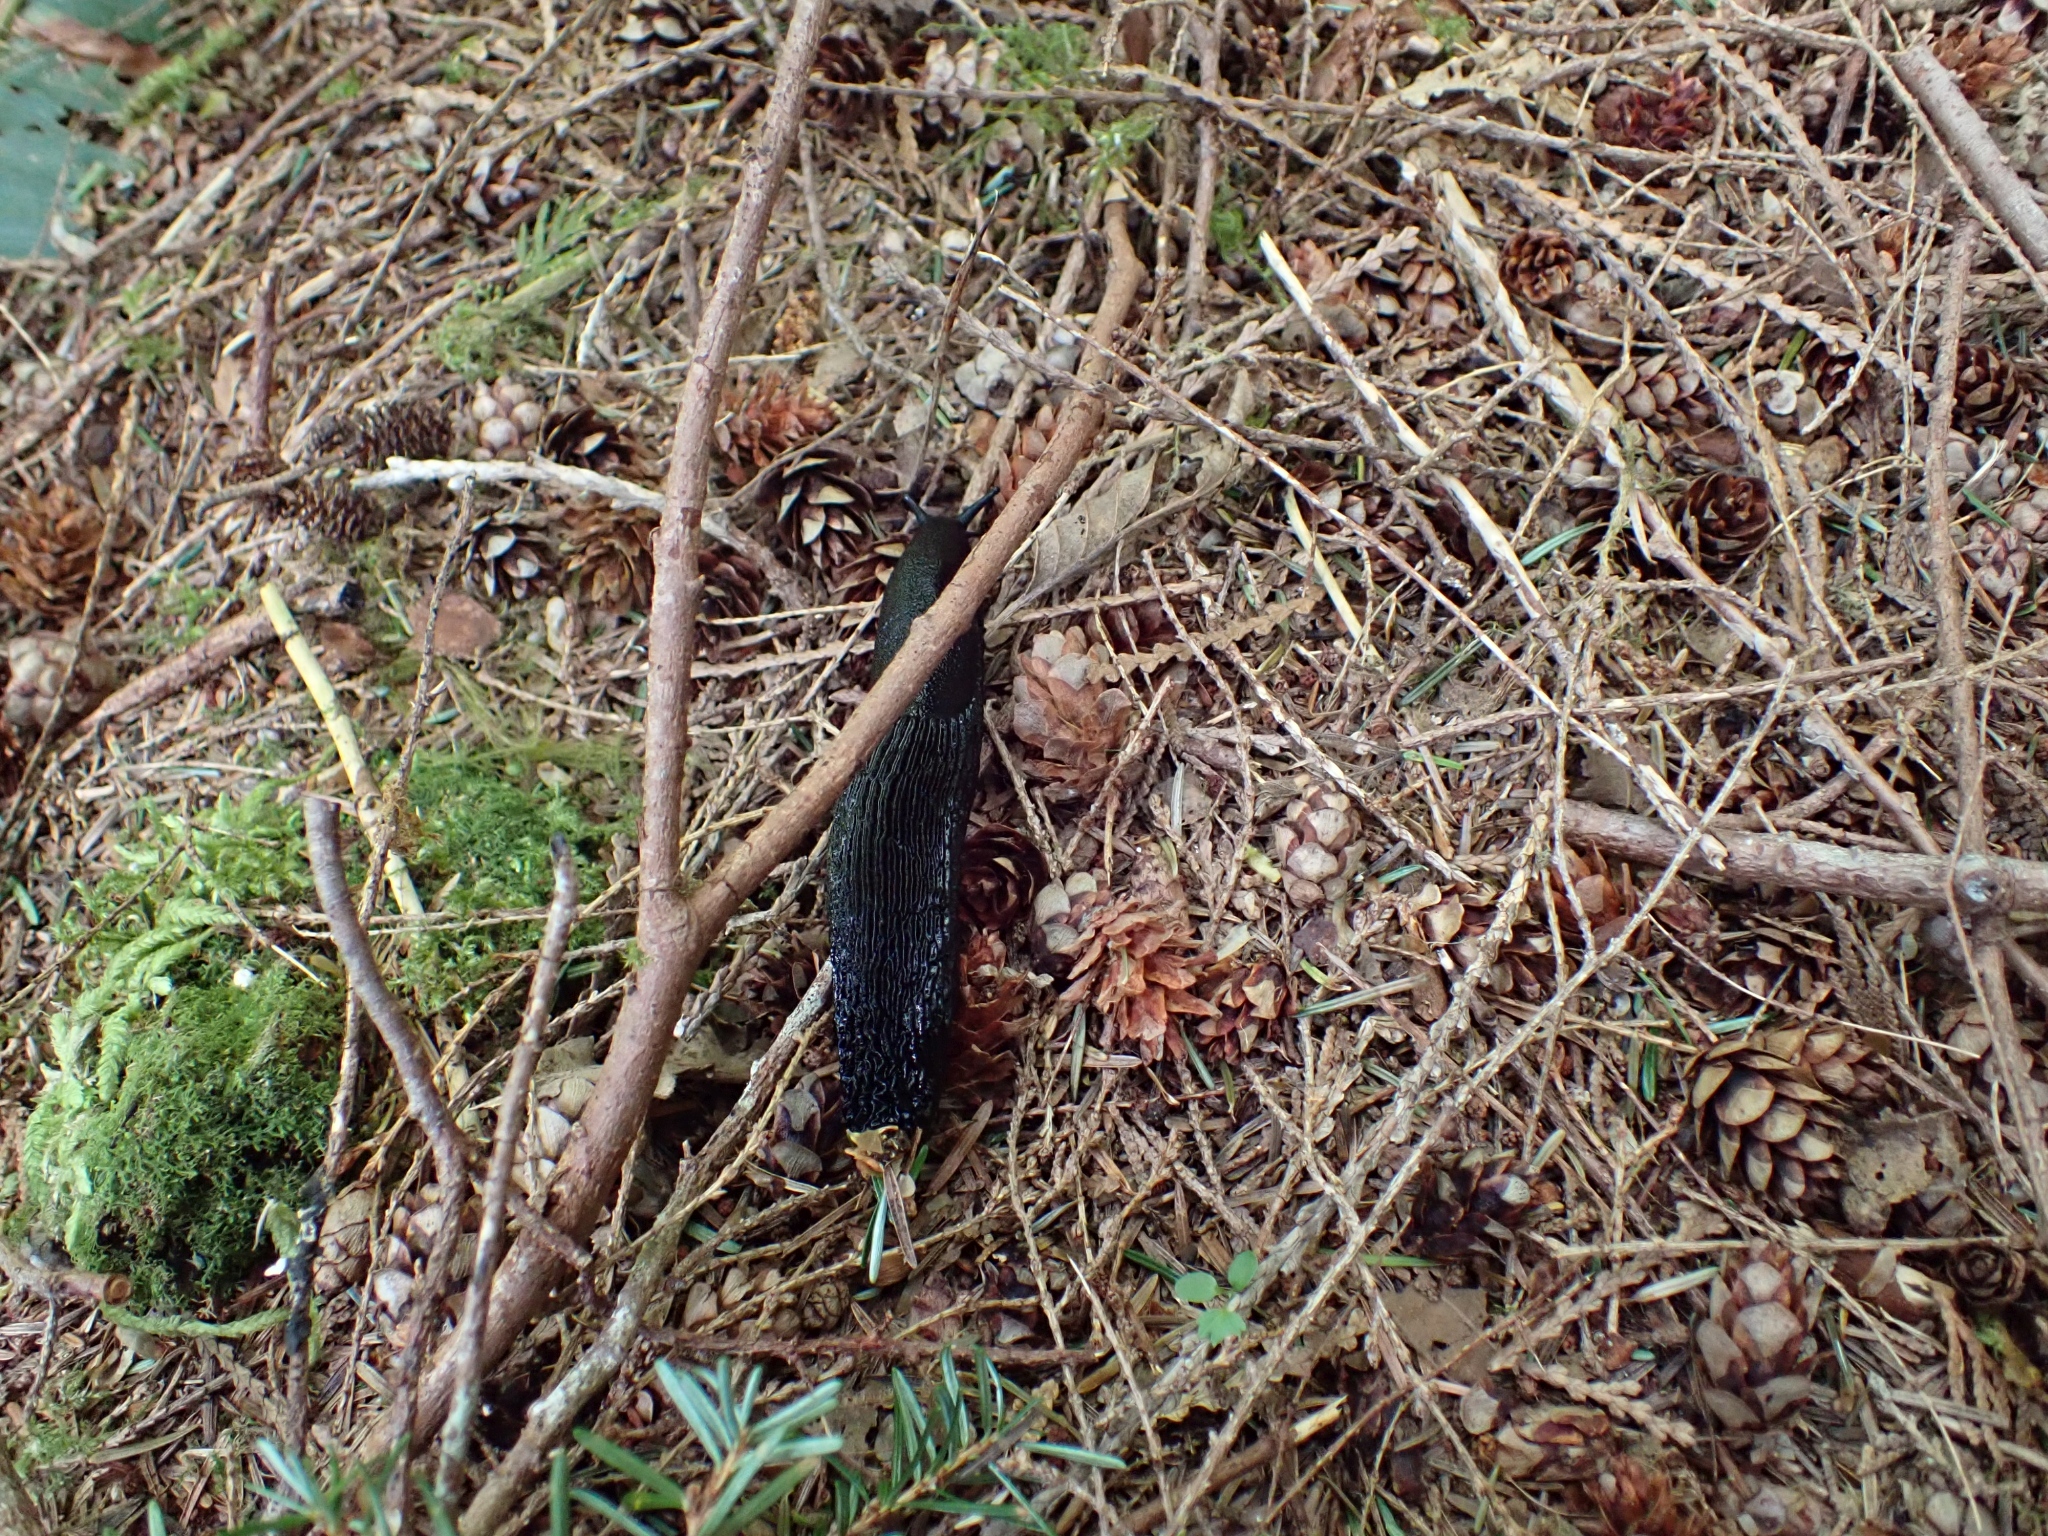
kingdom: Animalia
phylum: Mollusca
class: Gastropoda
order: Stylommatophora
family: Arionidae
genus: Arion
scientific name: Arion
